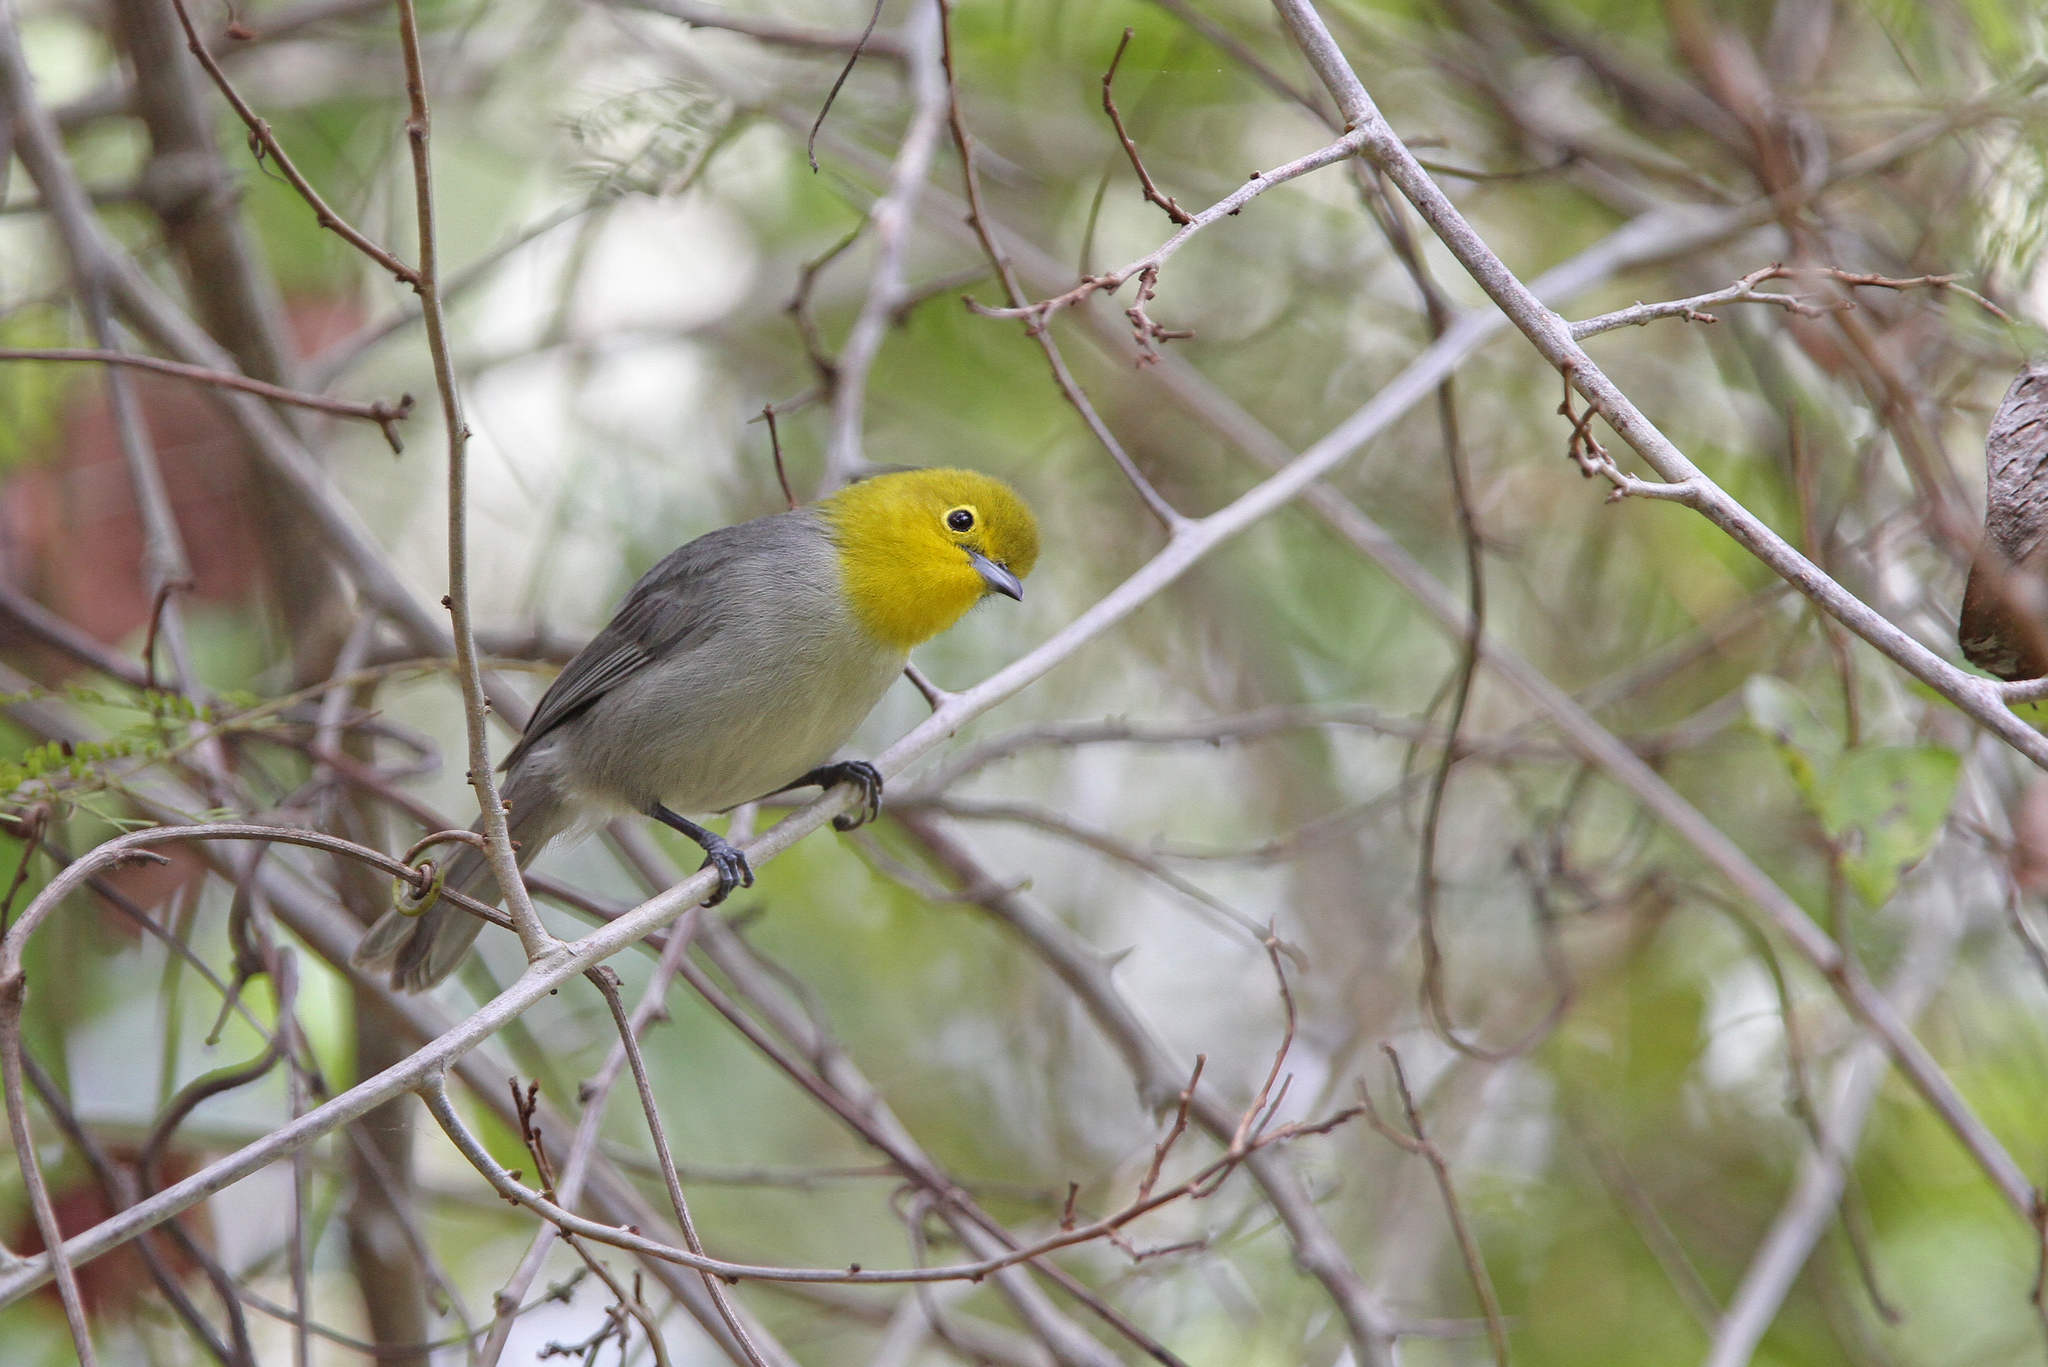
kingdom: Animalia
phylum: Chordata
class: Aves
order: Passeriformes
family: Parulidae
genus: Teretistris
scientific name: Teretistris fernandinae
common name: Yellow-headed warbler
